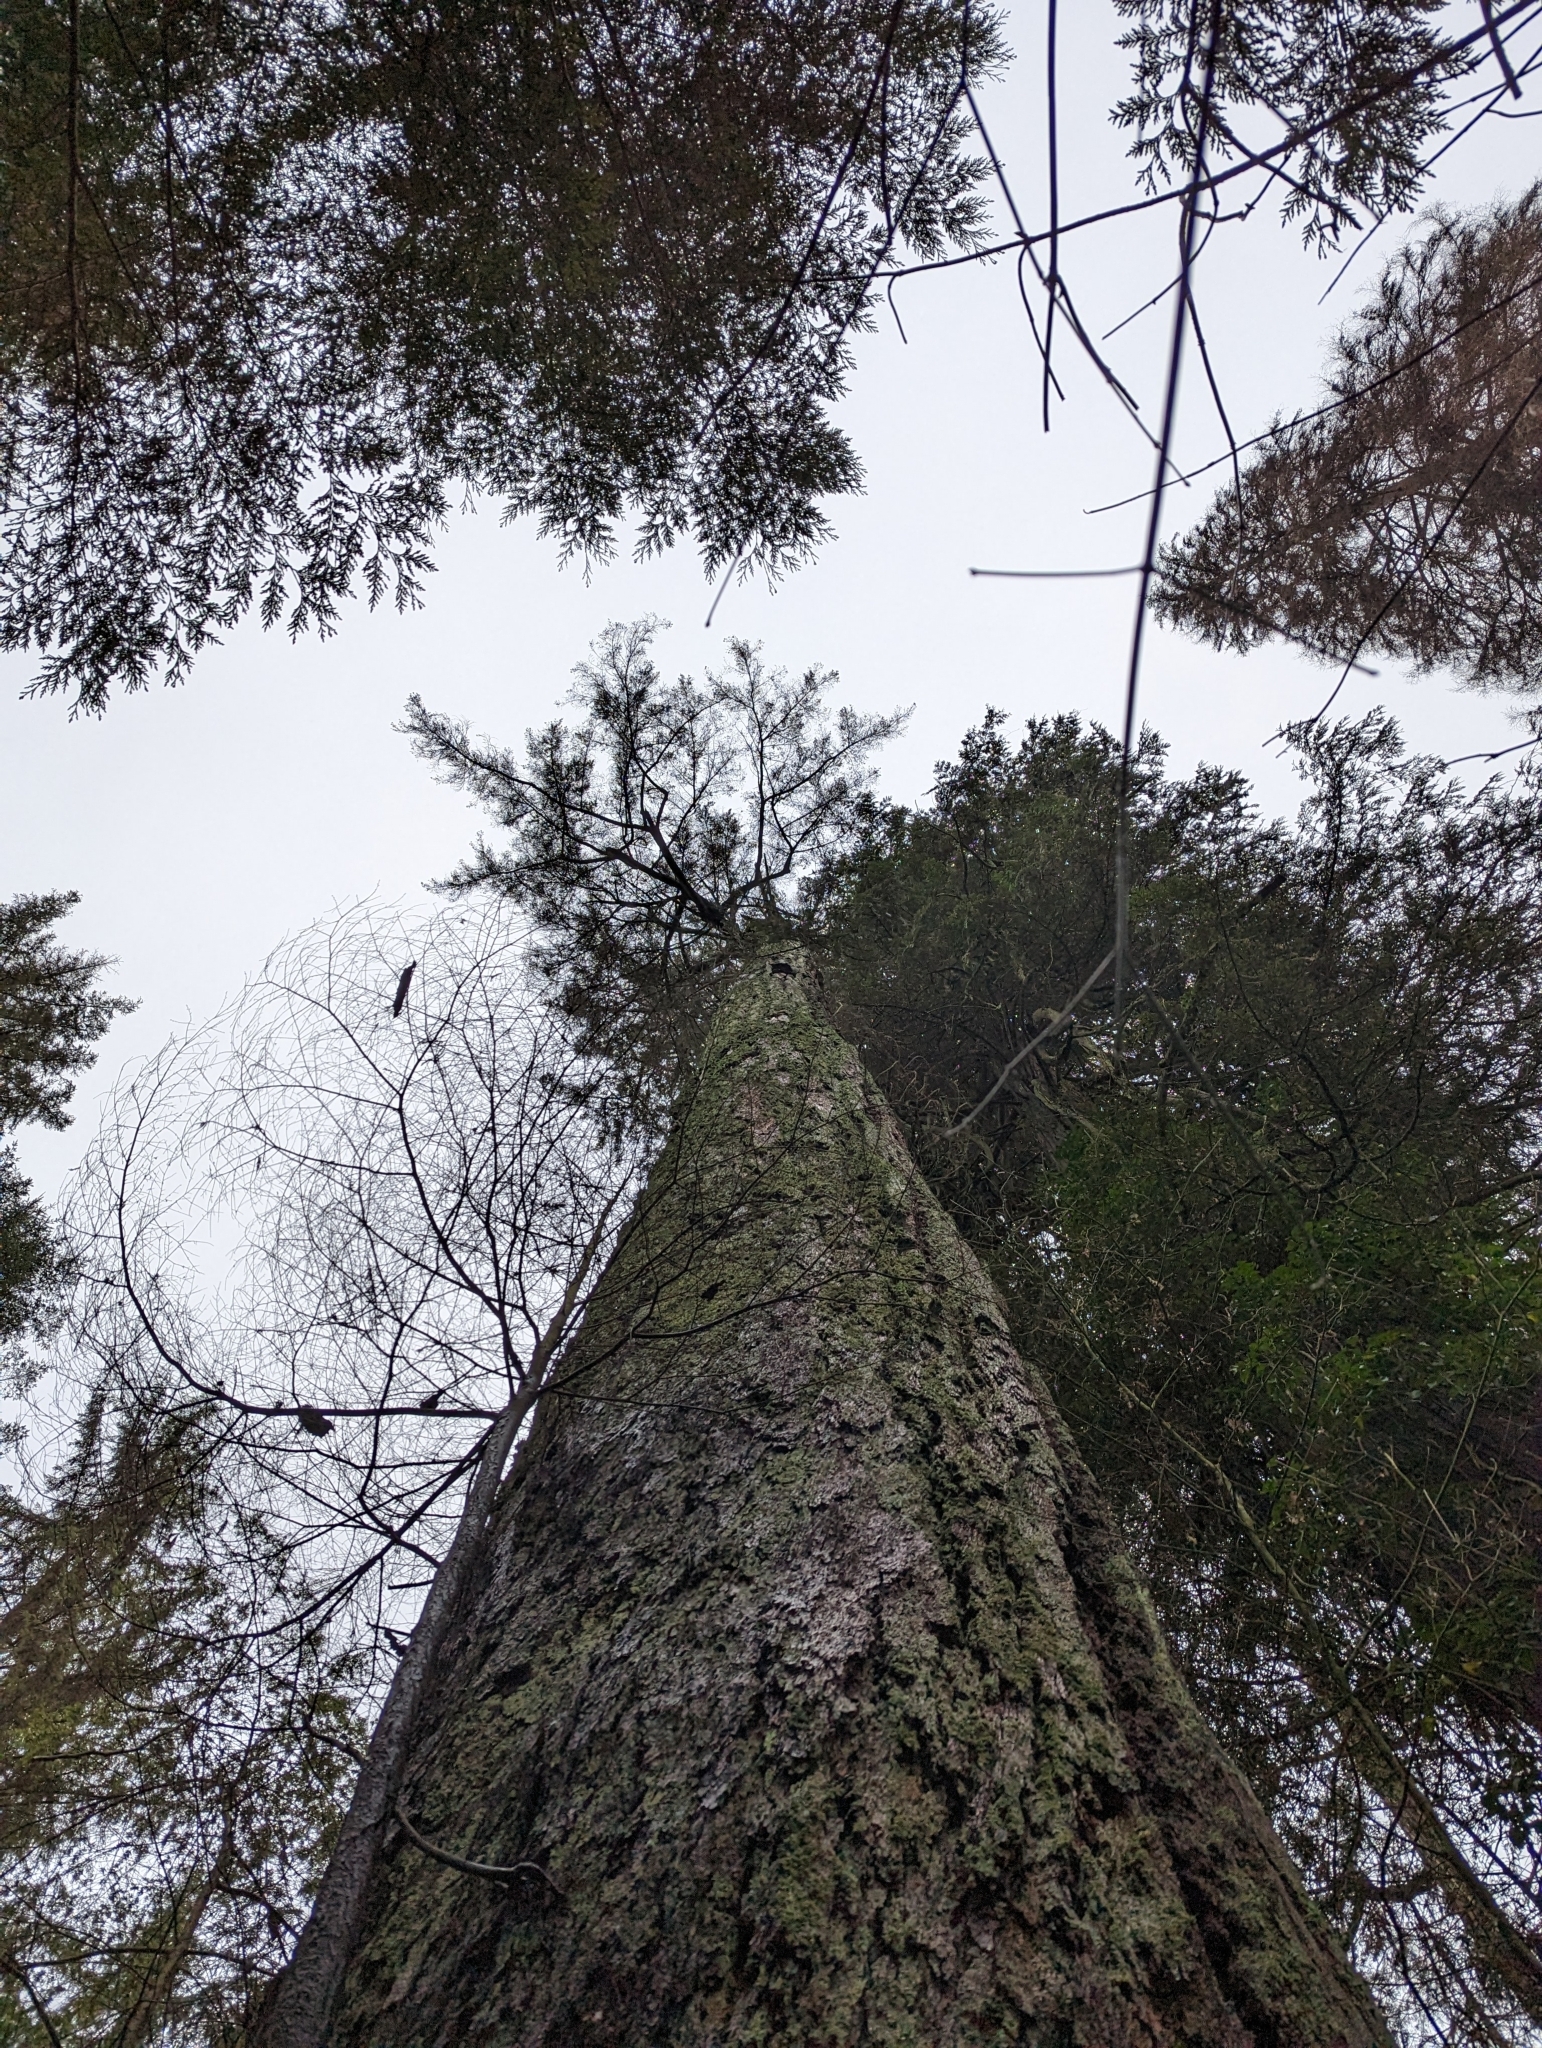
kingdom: Plantae
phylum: Tracheophyta
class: Pinopsida
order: Pinales
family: Pinaceae
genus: Pseudotsuga
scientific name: Pseudotsuga menziesii
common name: Douglas fir
